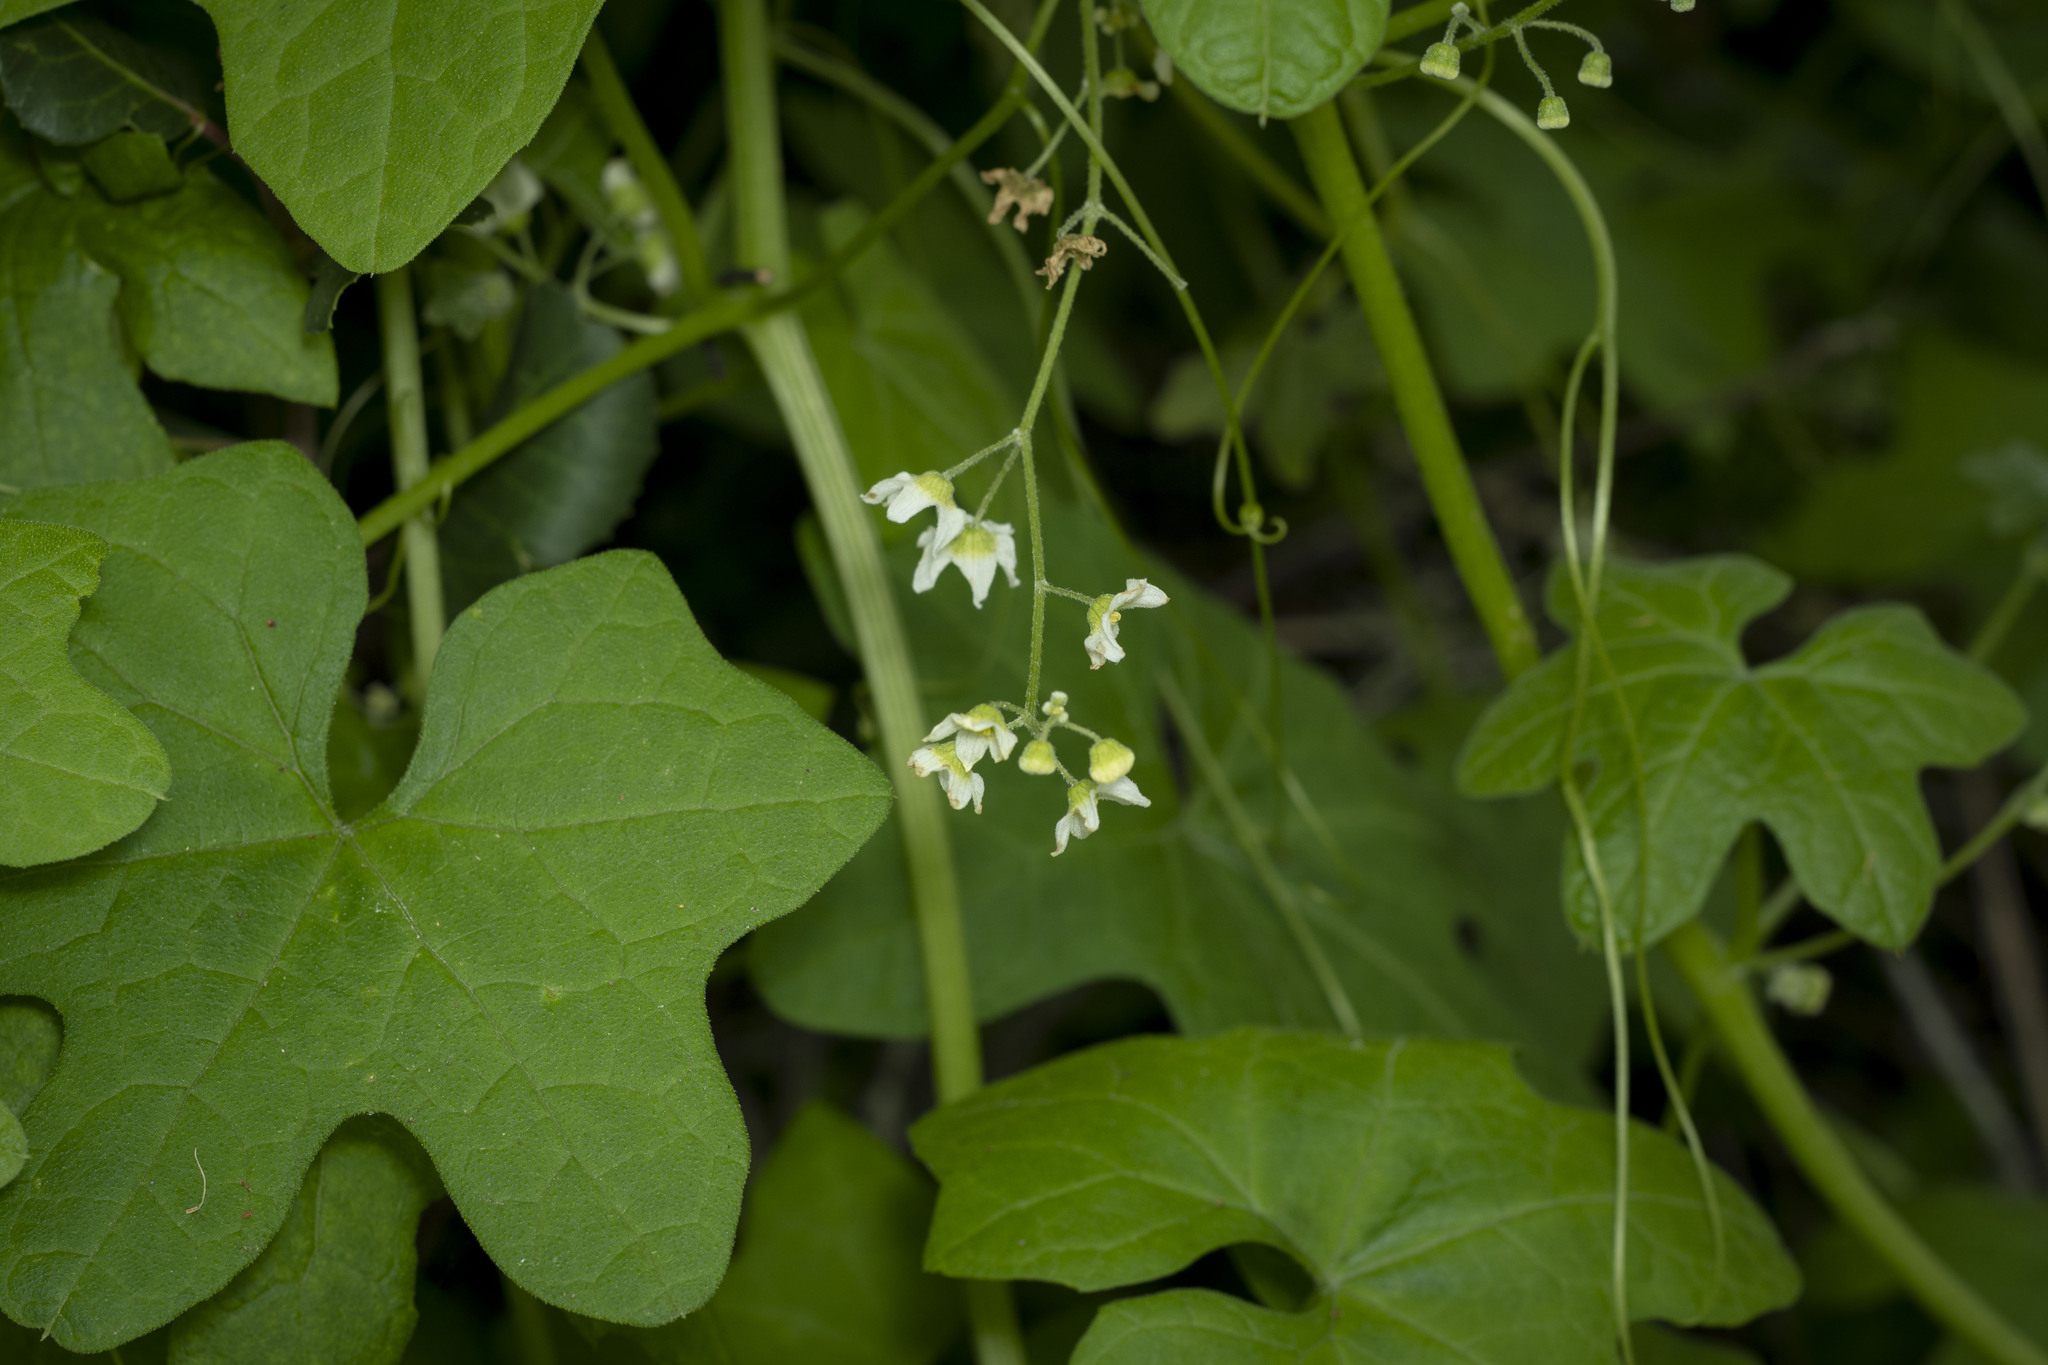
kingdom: Plantae
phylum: Tracheophyta
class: Magnoliopsida
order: Cucurbitales
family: Cucurbitaceae
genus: Marah
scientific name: Marah macrocarpa
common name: Cucamonga manroot
